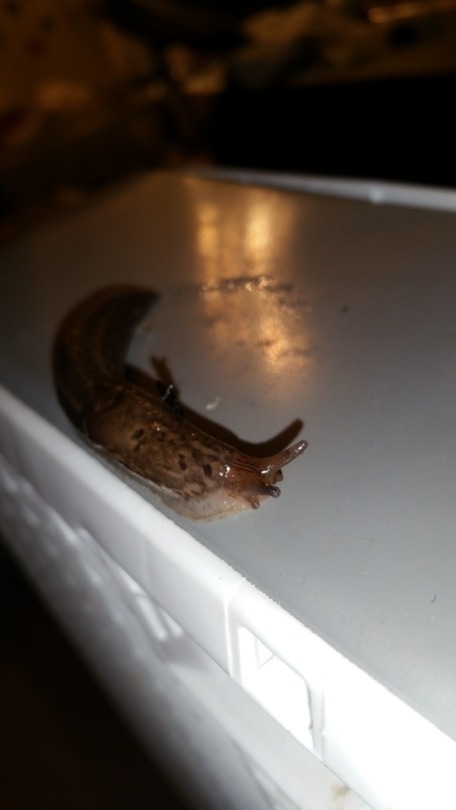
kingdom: Animalia
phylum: Mollusca
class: Gastropoda
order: Stylommatophora
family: Limacidae
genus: Limax
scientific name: Limax maximus
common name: Great grey slug
